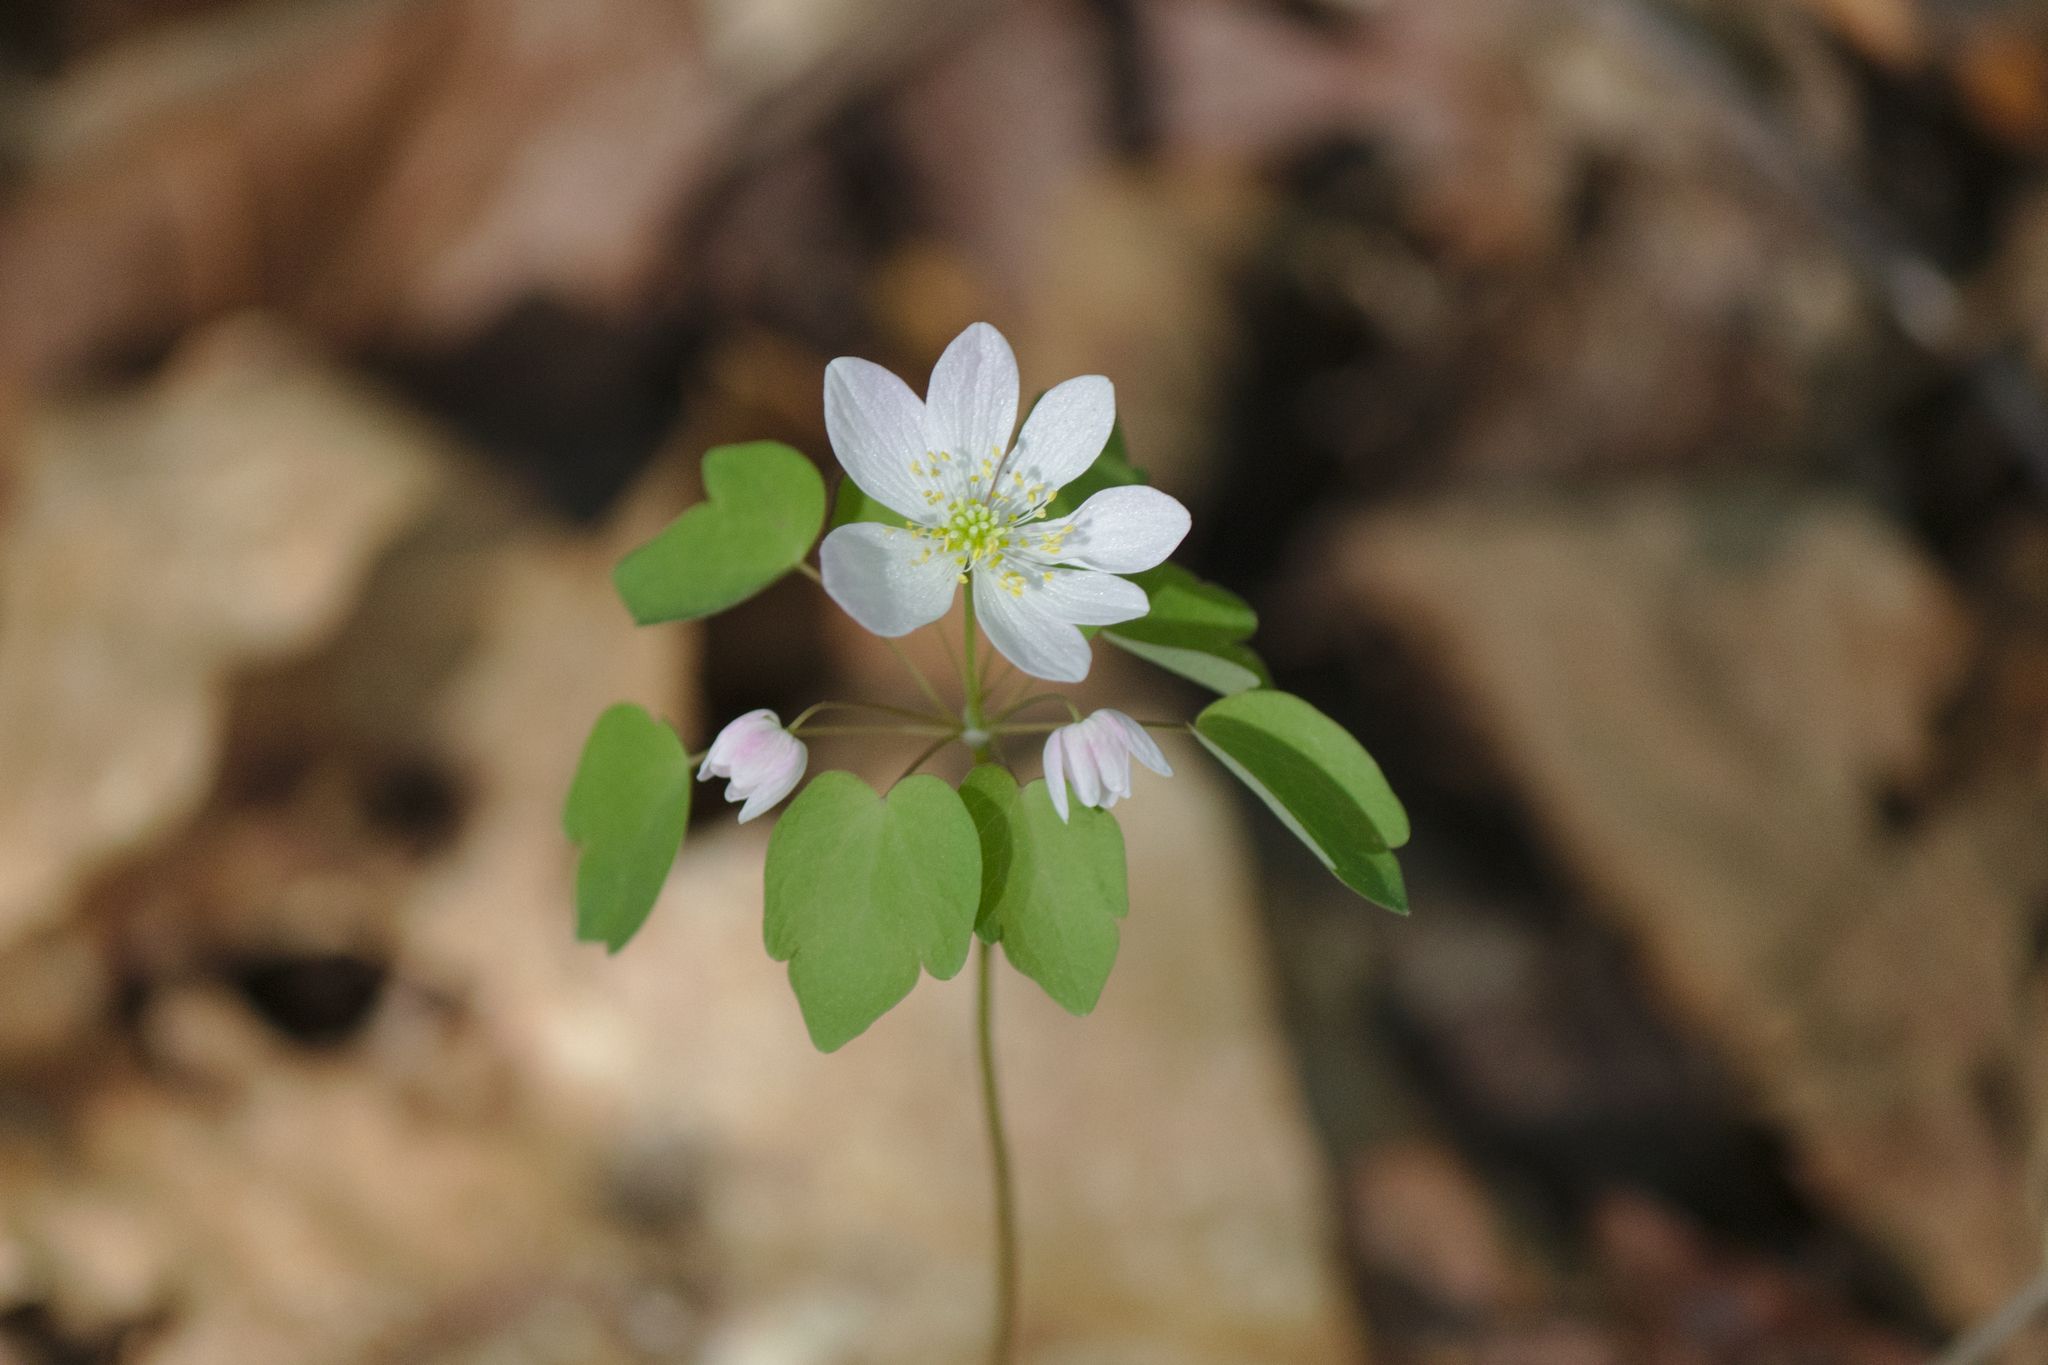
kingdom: Plantae
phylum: Tracheophyta
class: Magnoliopsida
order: Ranunculales
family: Ranunculaceae
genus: Thalictrum
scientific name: Thalictrum thalictroides
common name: Rue-anemone
